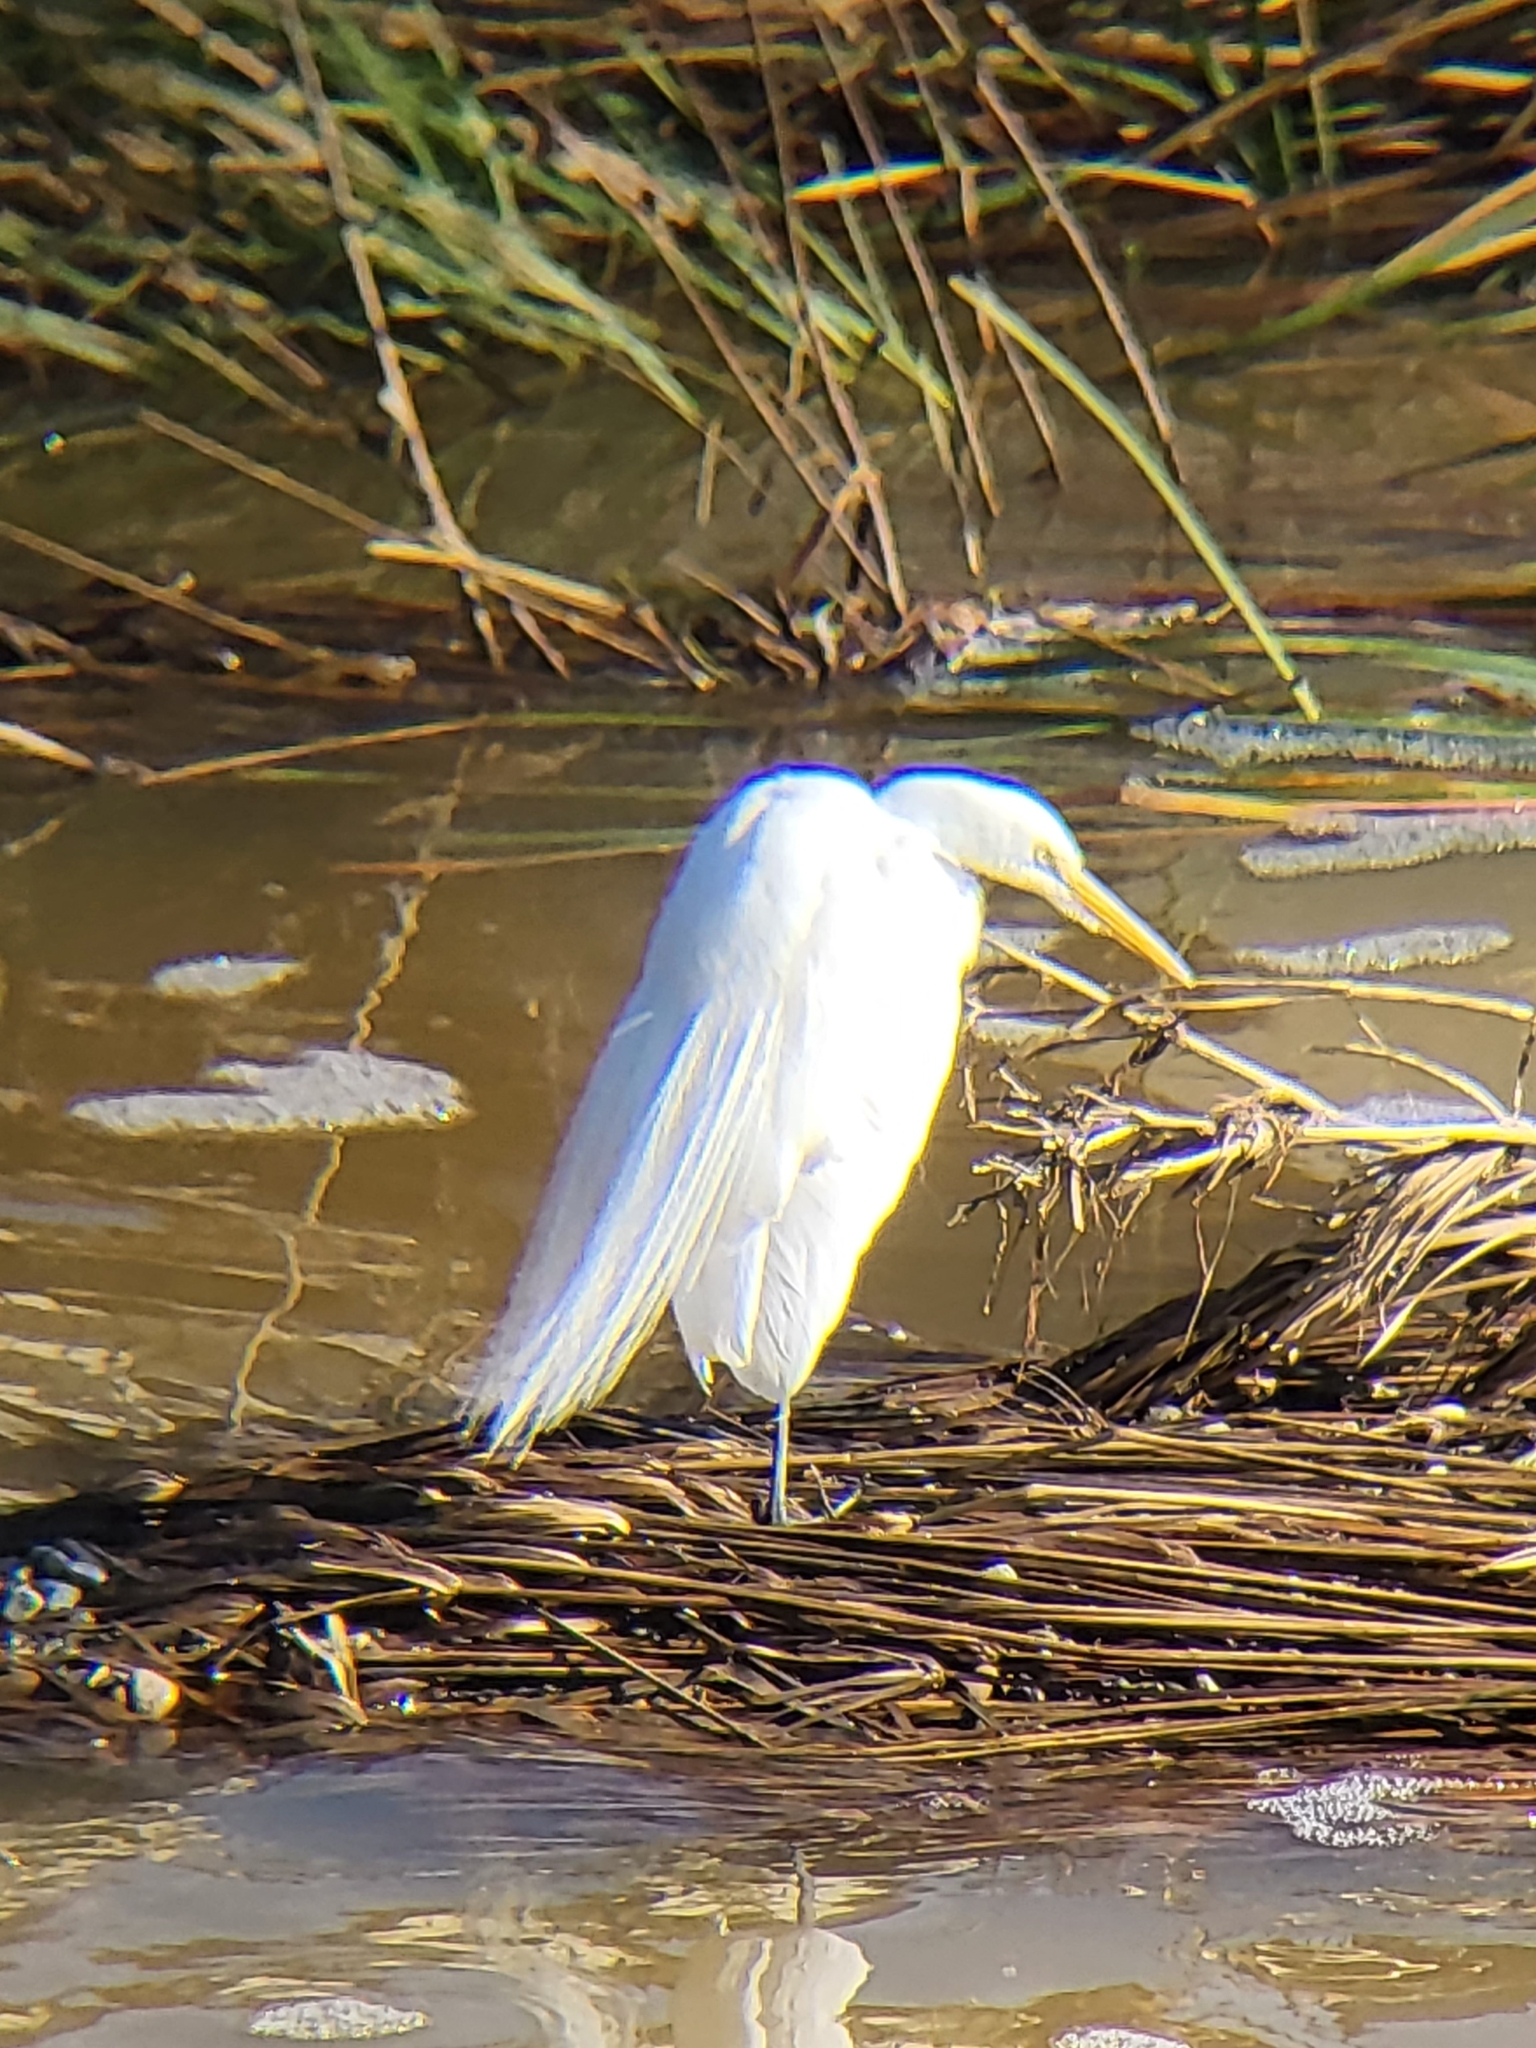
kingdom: Animalia
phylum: Chordata
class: Aves
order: Pelecaniformes
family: Ardeidae
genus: Ardea
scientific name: Ardea alba
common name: Great egret
